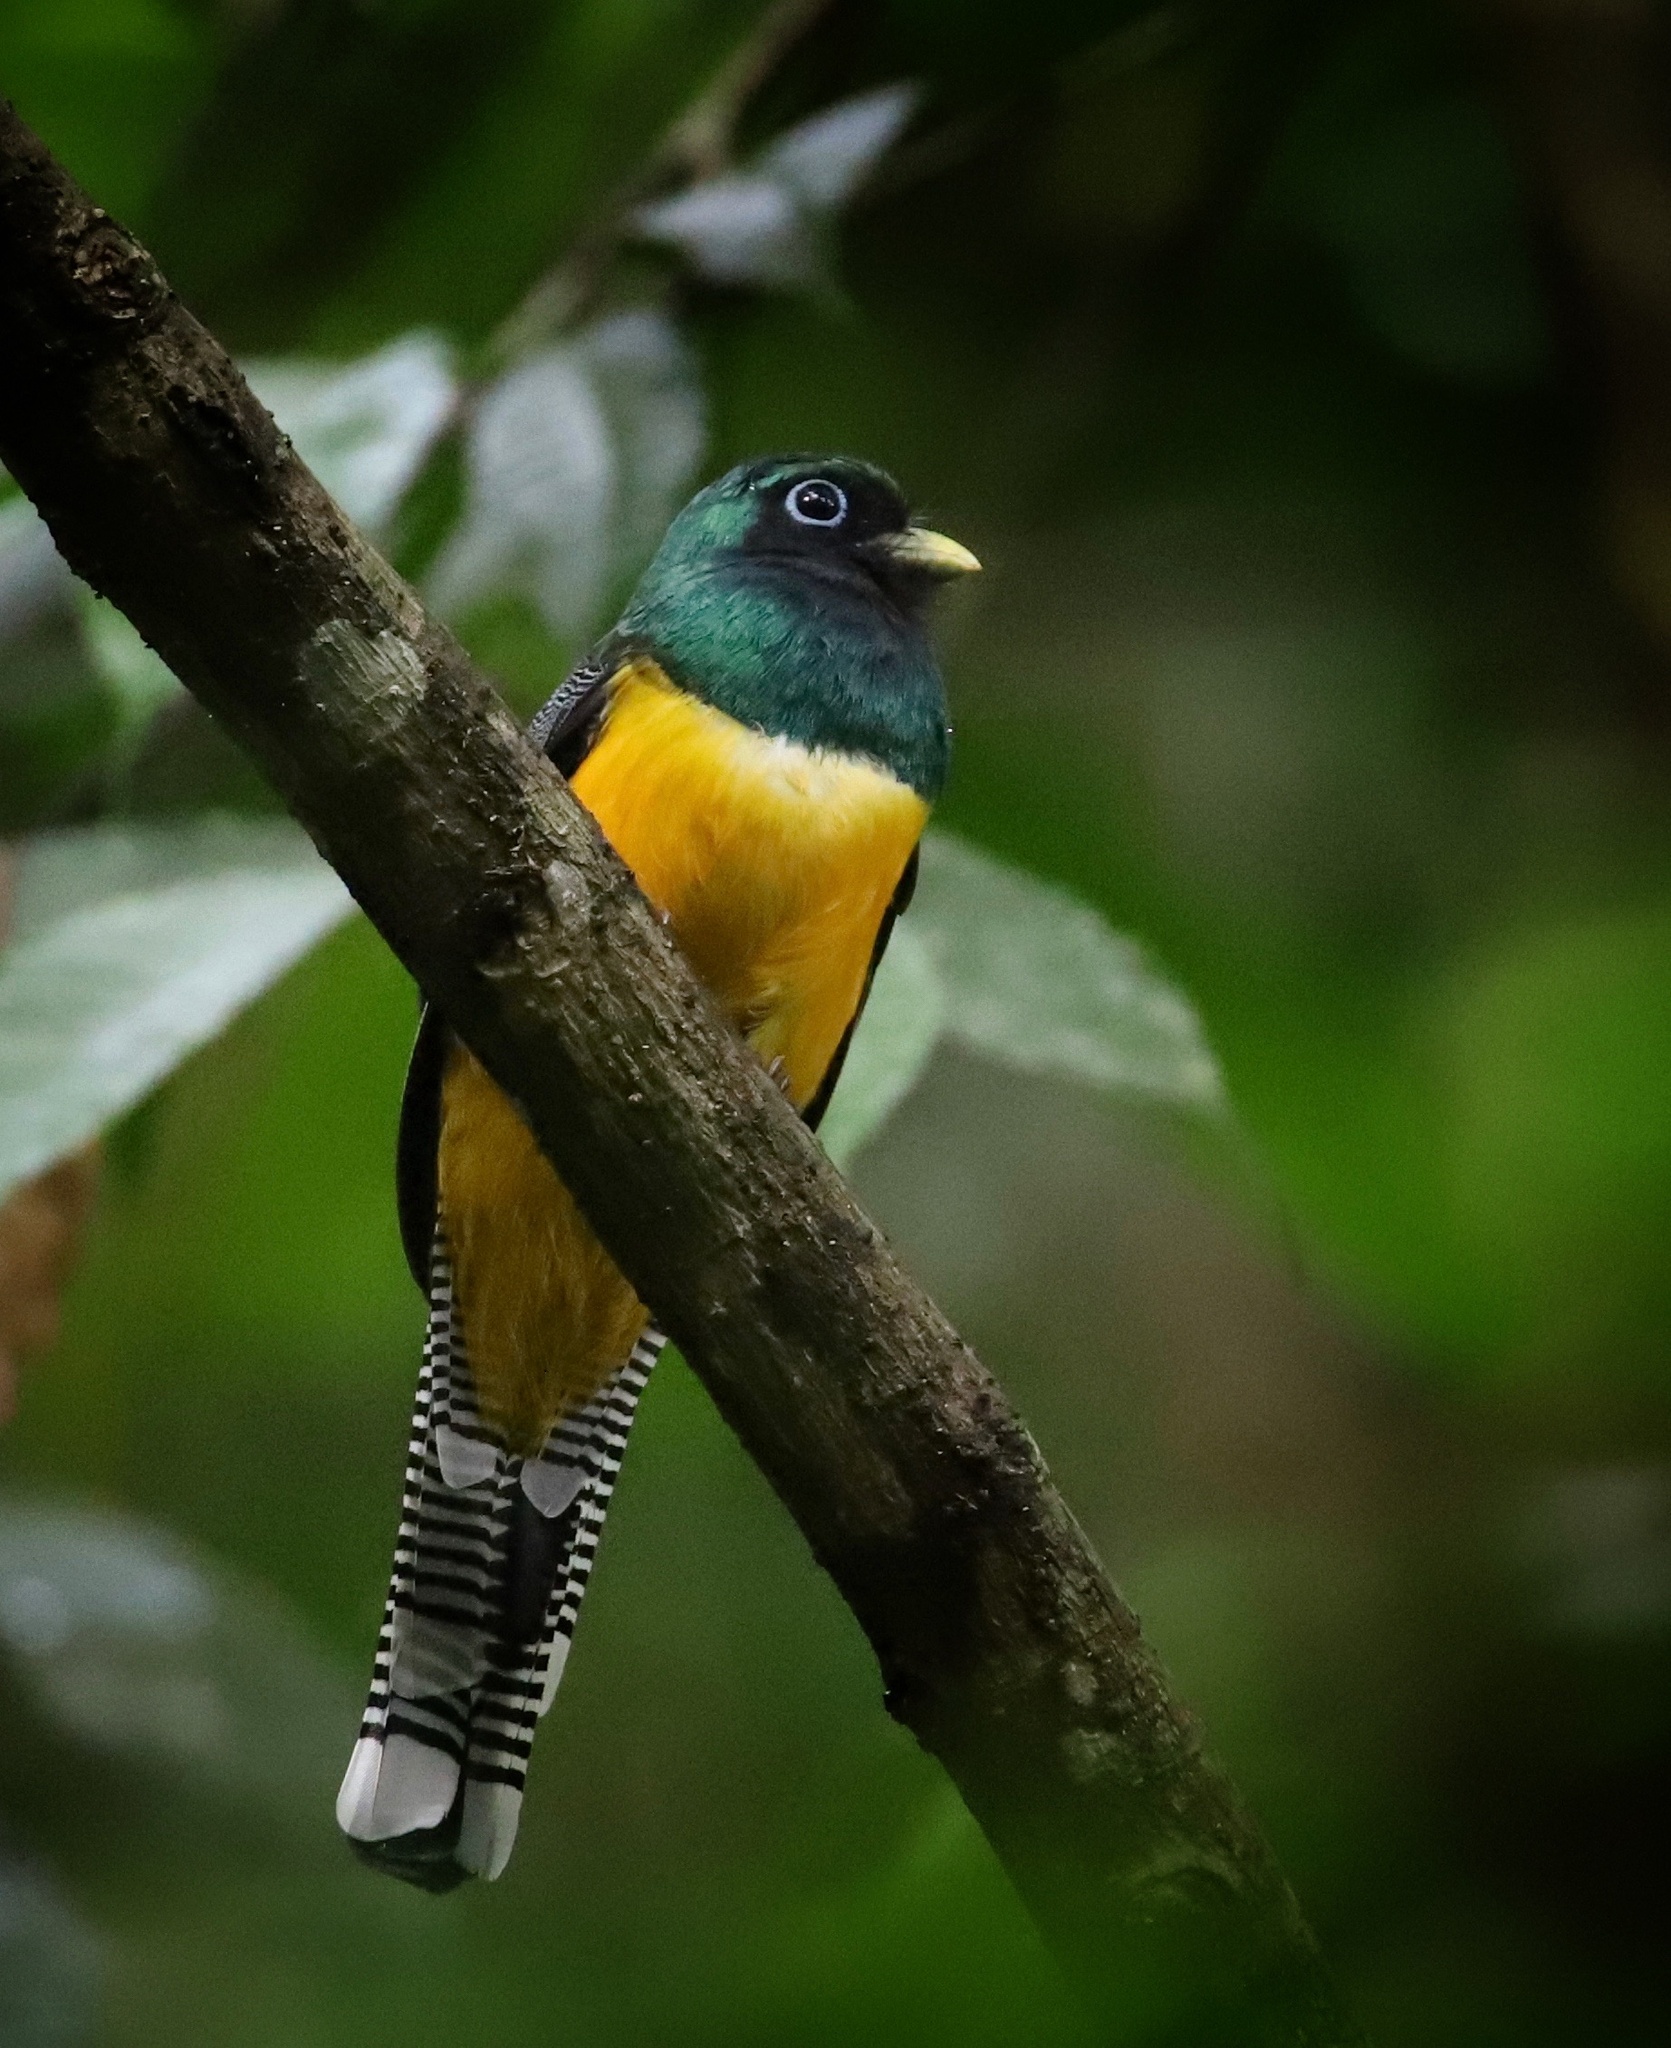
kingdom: Animalia
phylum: Chordata
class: Aves
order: Trogoniformes
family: Trogonidae
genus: Trogon
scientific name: Trogon rufus
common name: Black-throated trogon
